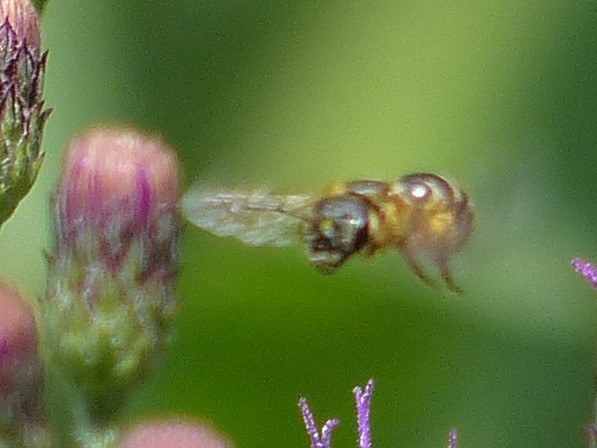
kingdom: Animalia
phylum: Arthropoda
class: Insecta
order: Hymenoptera
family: Halictidae
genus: Halictus
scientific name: Halictus ligatus
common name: Ligated furrow bee
